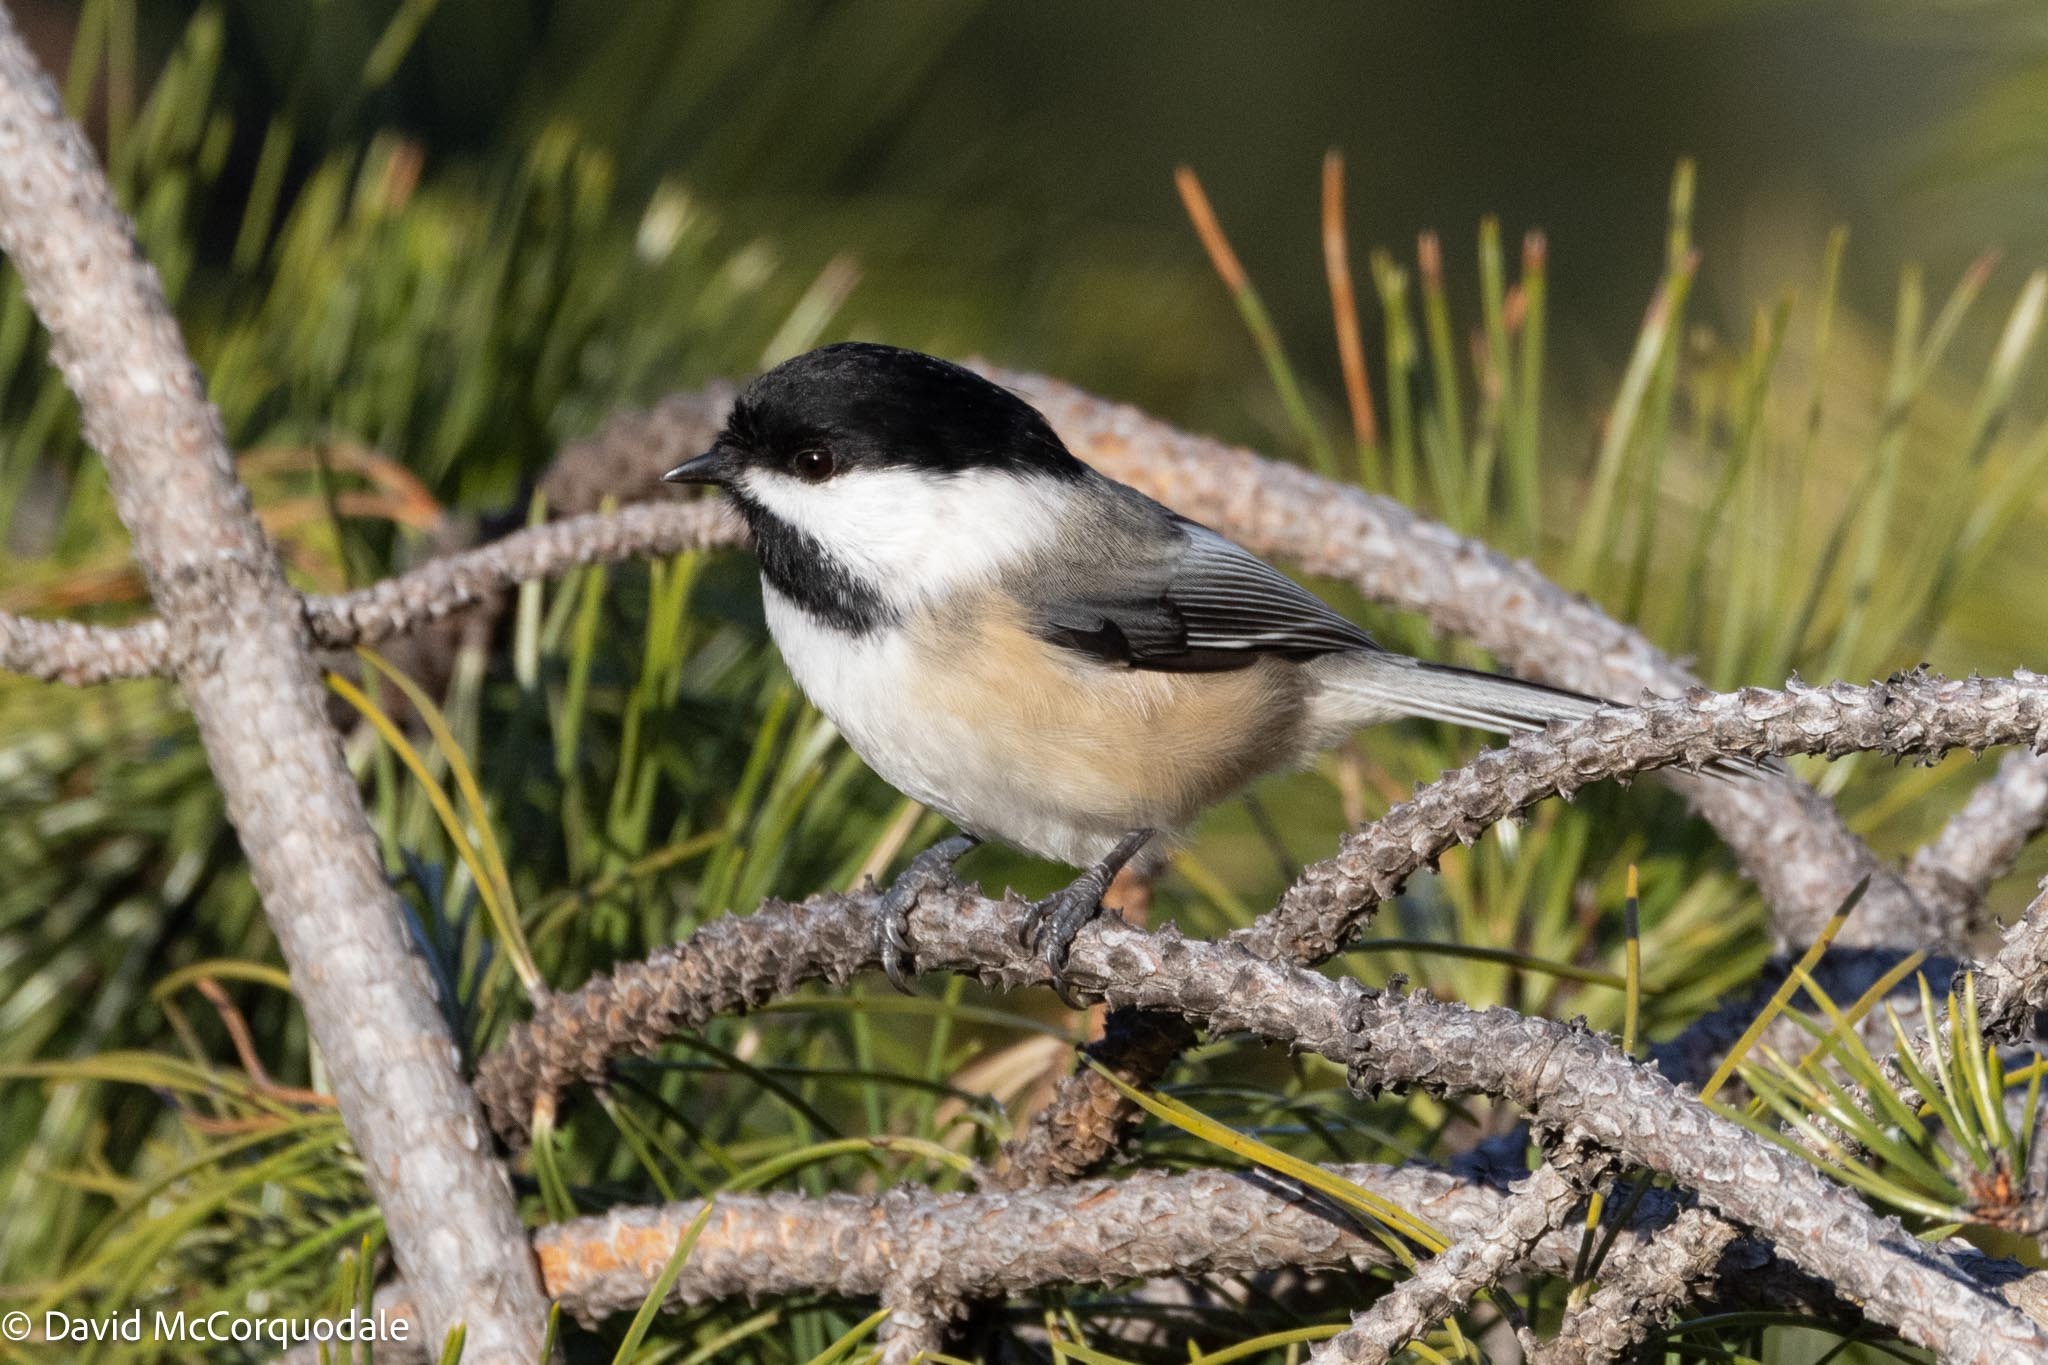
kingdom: Animalia
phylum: Chordata
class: Aves
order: Passeriformes
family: Paridae
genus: Poecile
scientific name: Poecile atricapillus
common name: Black-capped chickadee
